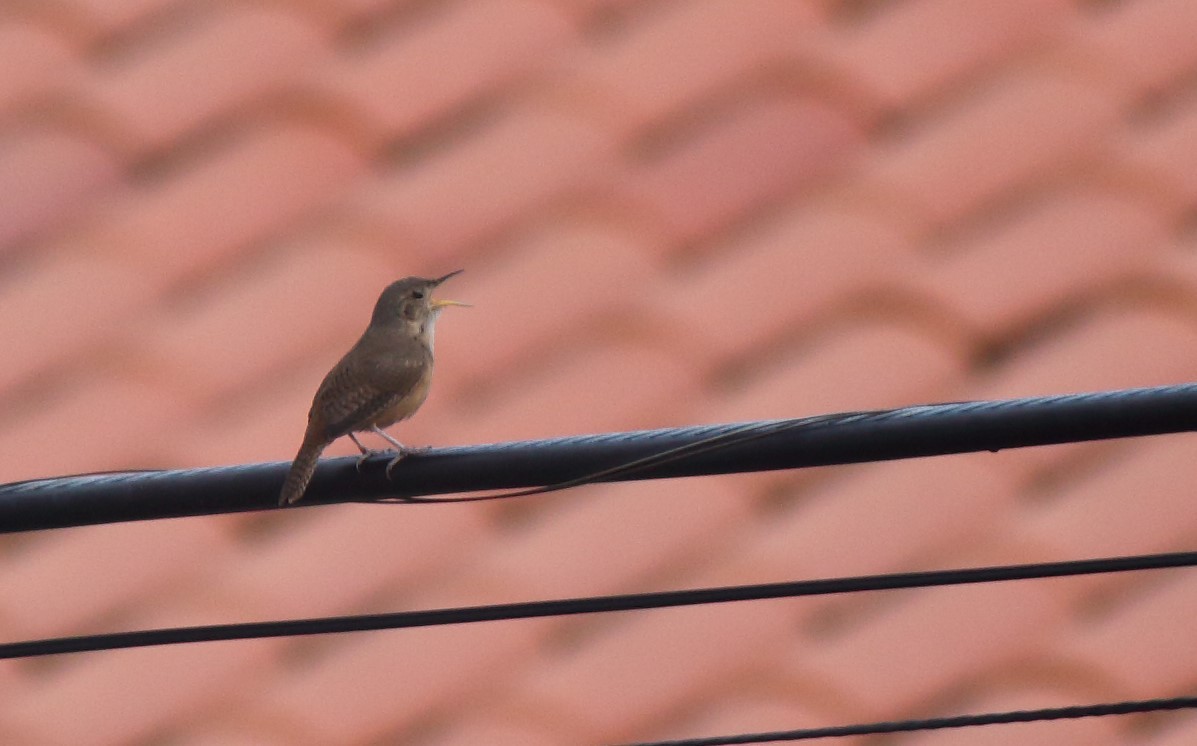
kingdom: Animalia
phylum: Chordata
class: Aves
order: Passeriformes
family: Troglodytidae
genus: Troglodytes
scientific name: Troglodytes aedon
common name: House wren
